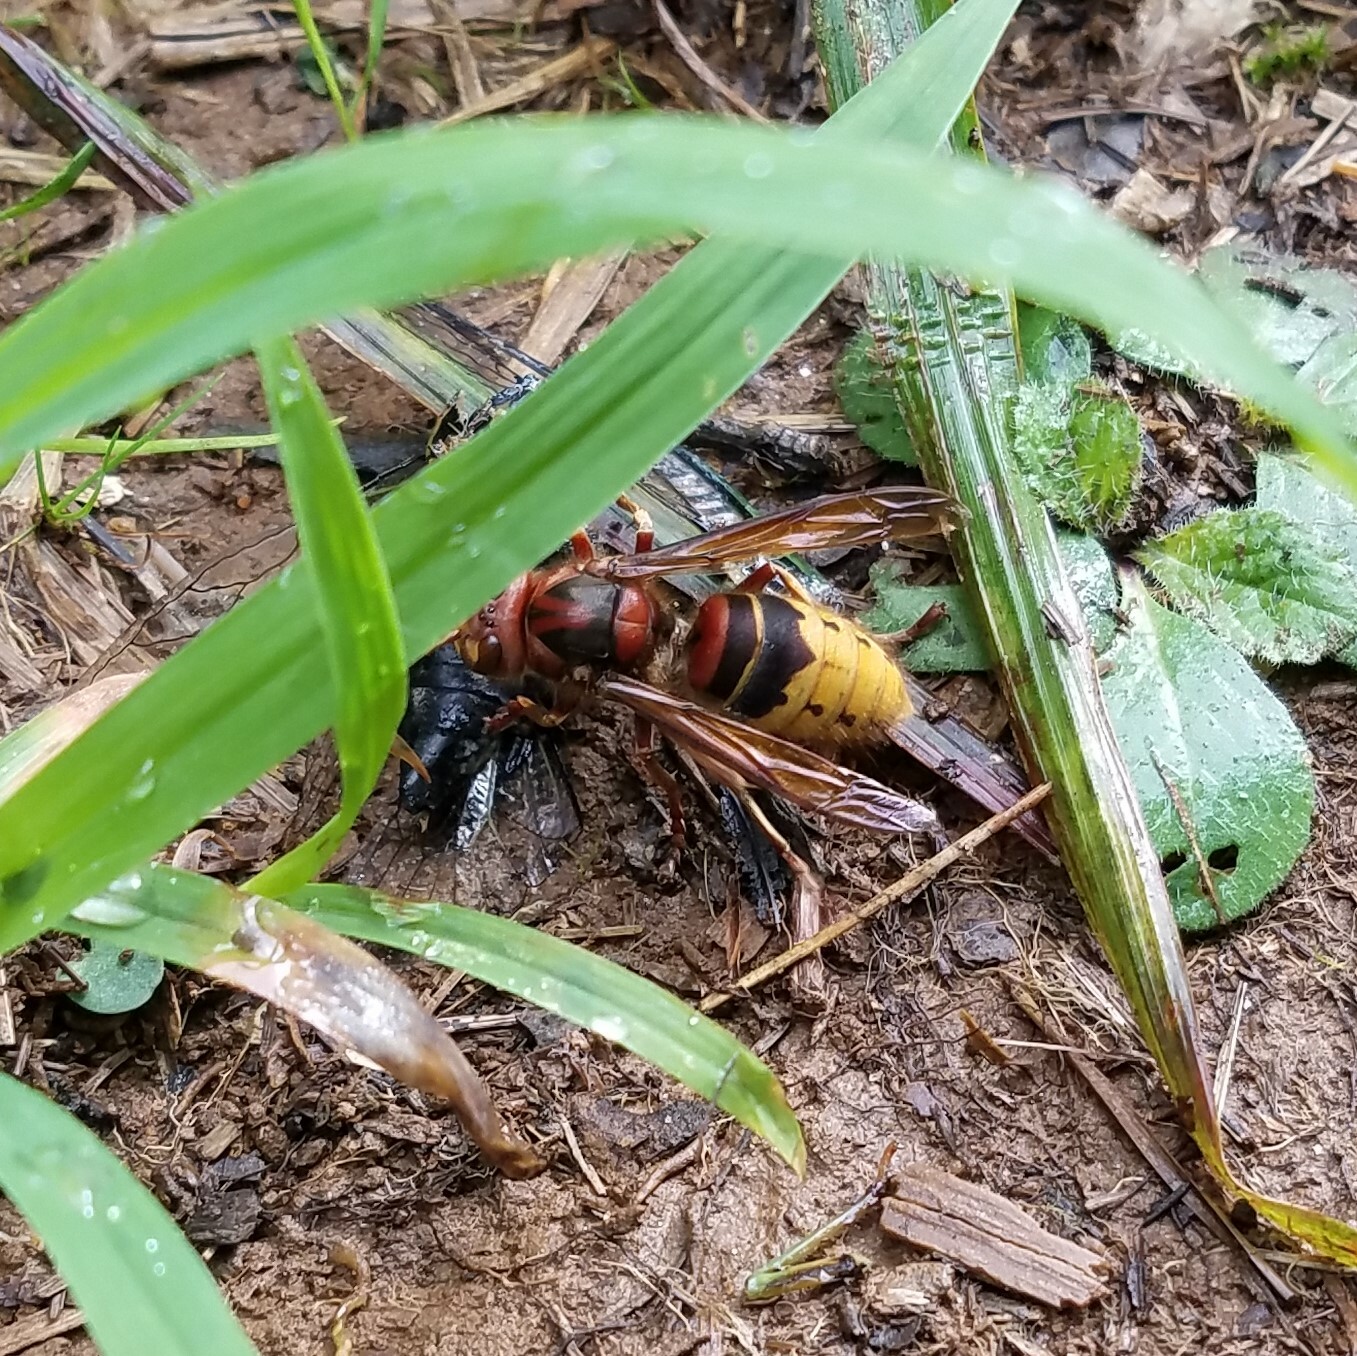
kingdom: Animalia
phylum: Arthropoda
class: Insecta
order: Hymenoptera
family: Vespidae
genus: Vespa
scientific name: Vespa crabro
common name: Hornet
